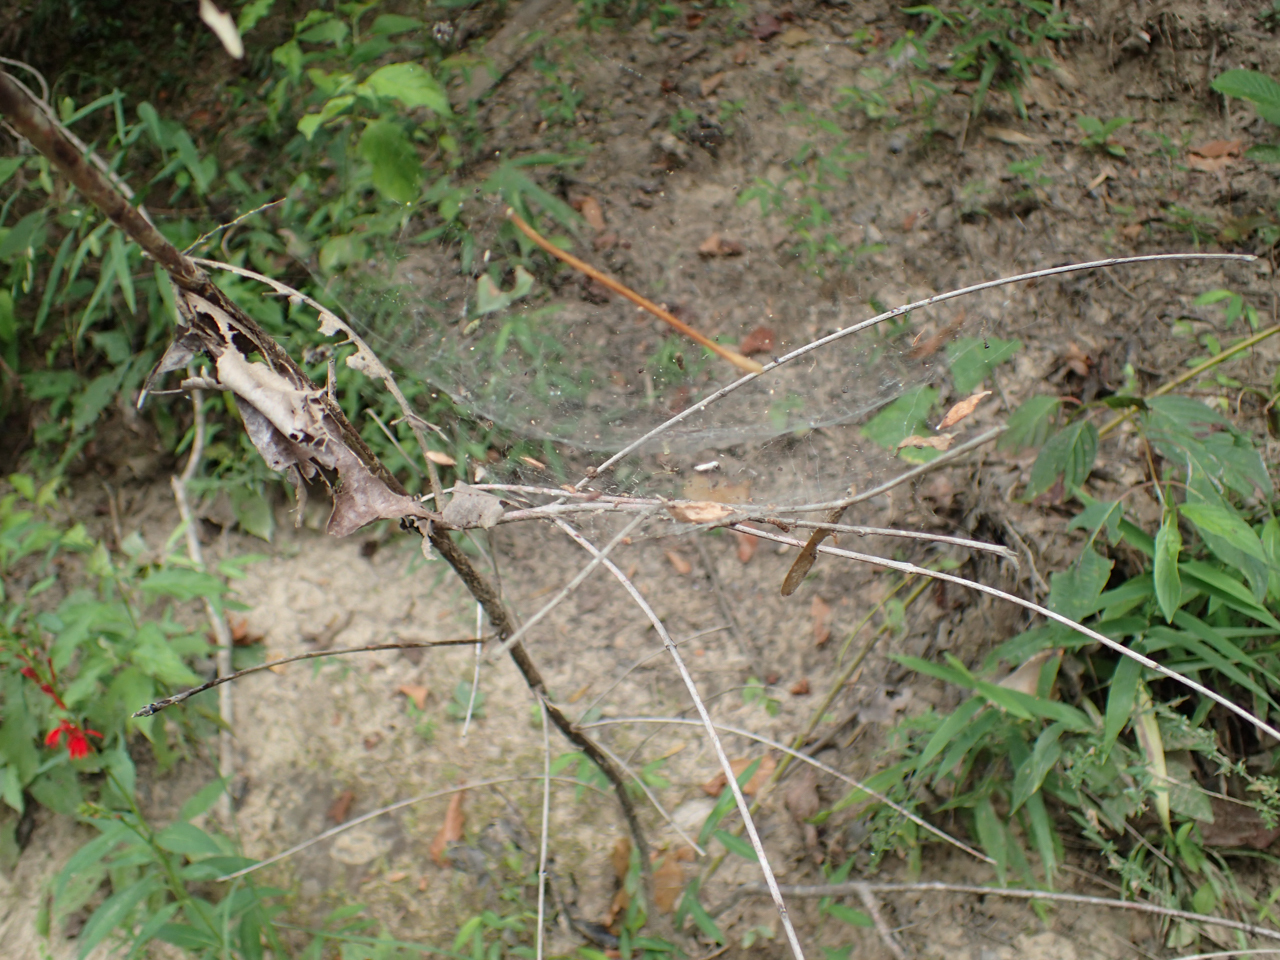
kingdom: Animalia
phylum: Arthropoda
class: Arachnida
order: Araneae
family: Linyphiidae
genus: Frontinella
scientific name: Frontinella pyramitela
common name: Bowl-and-doily spider
